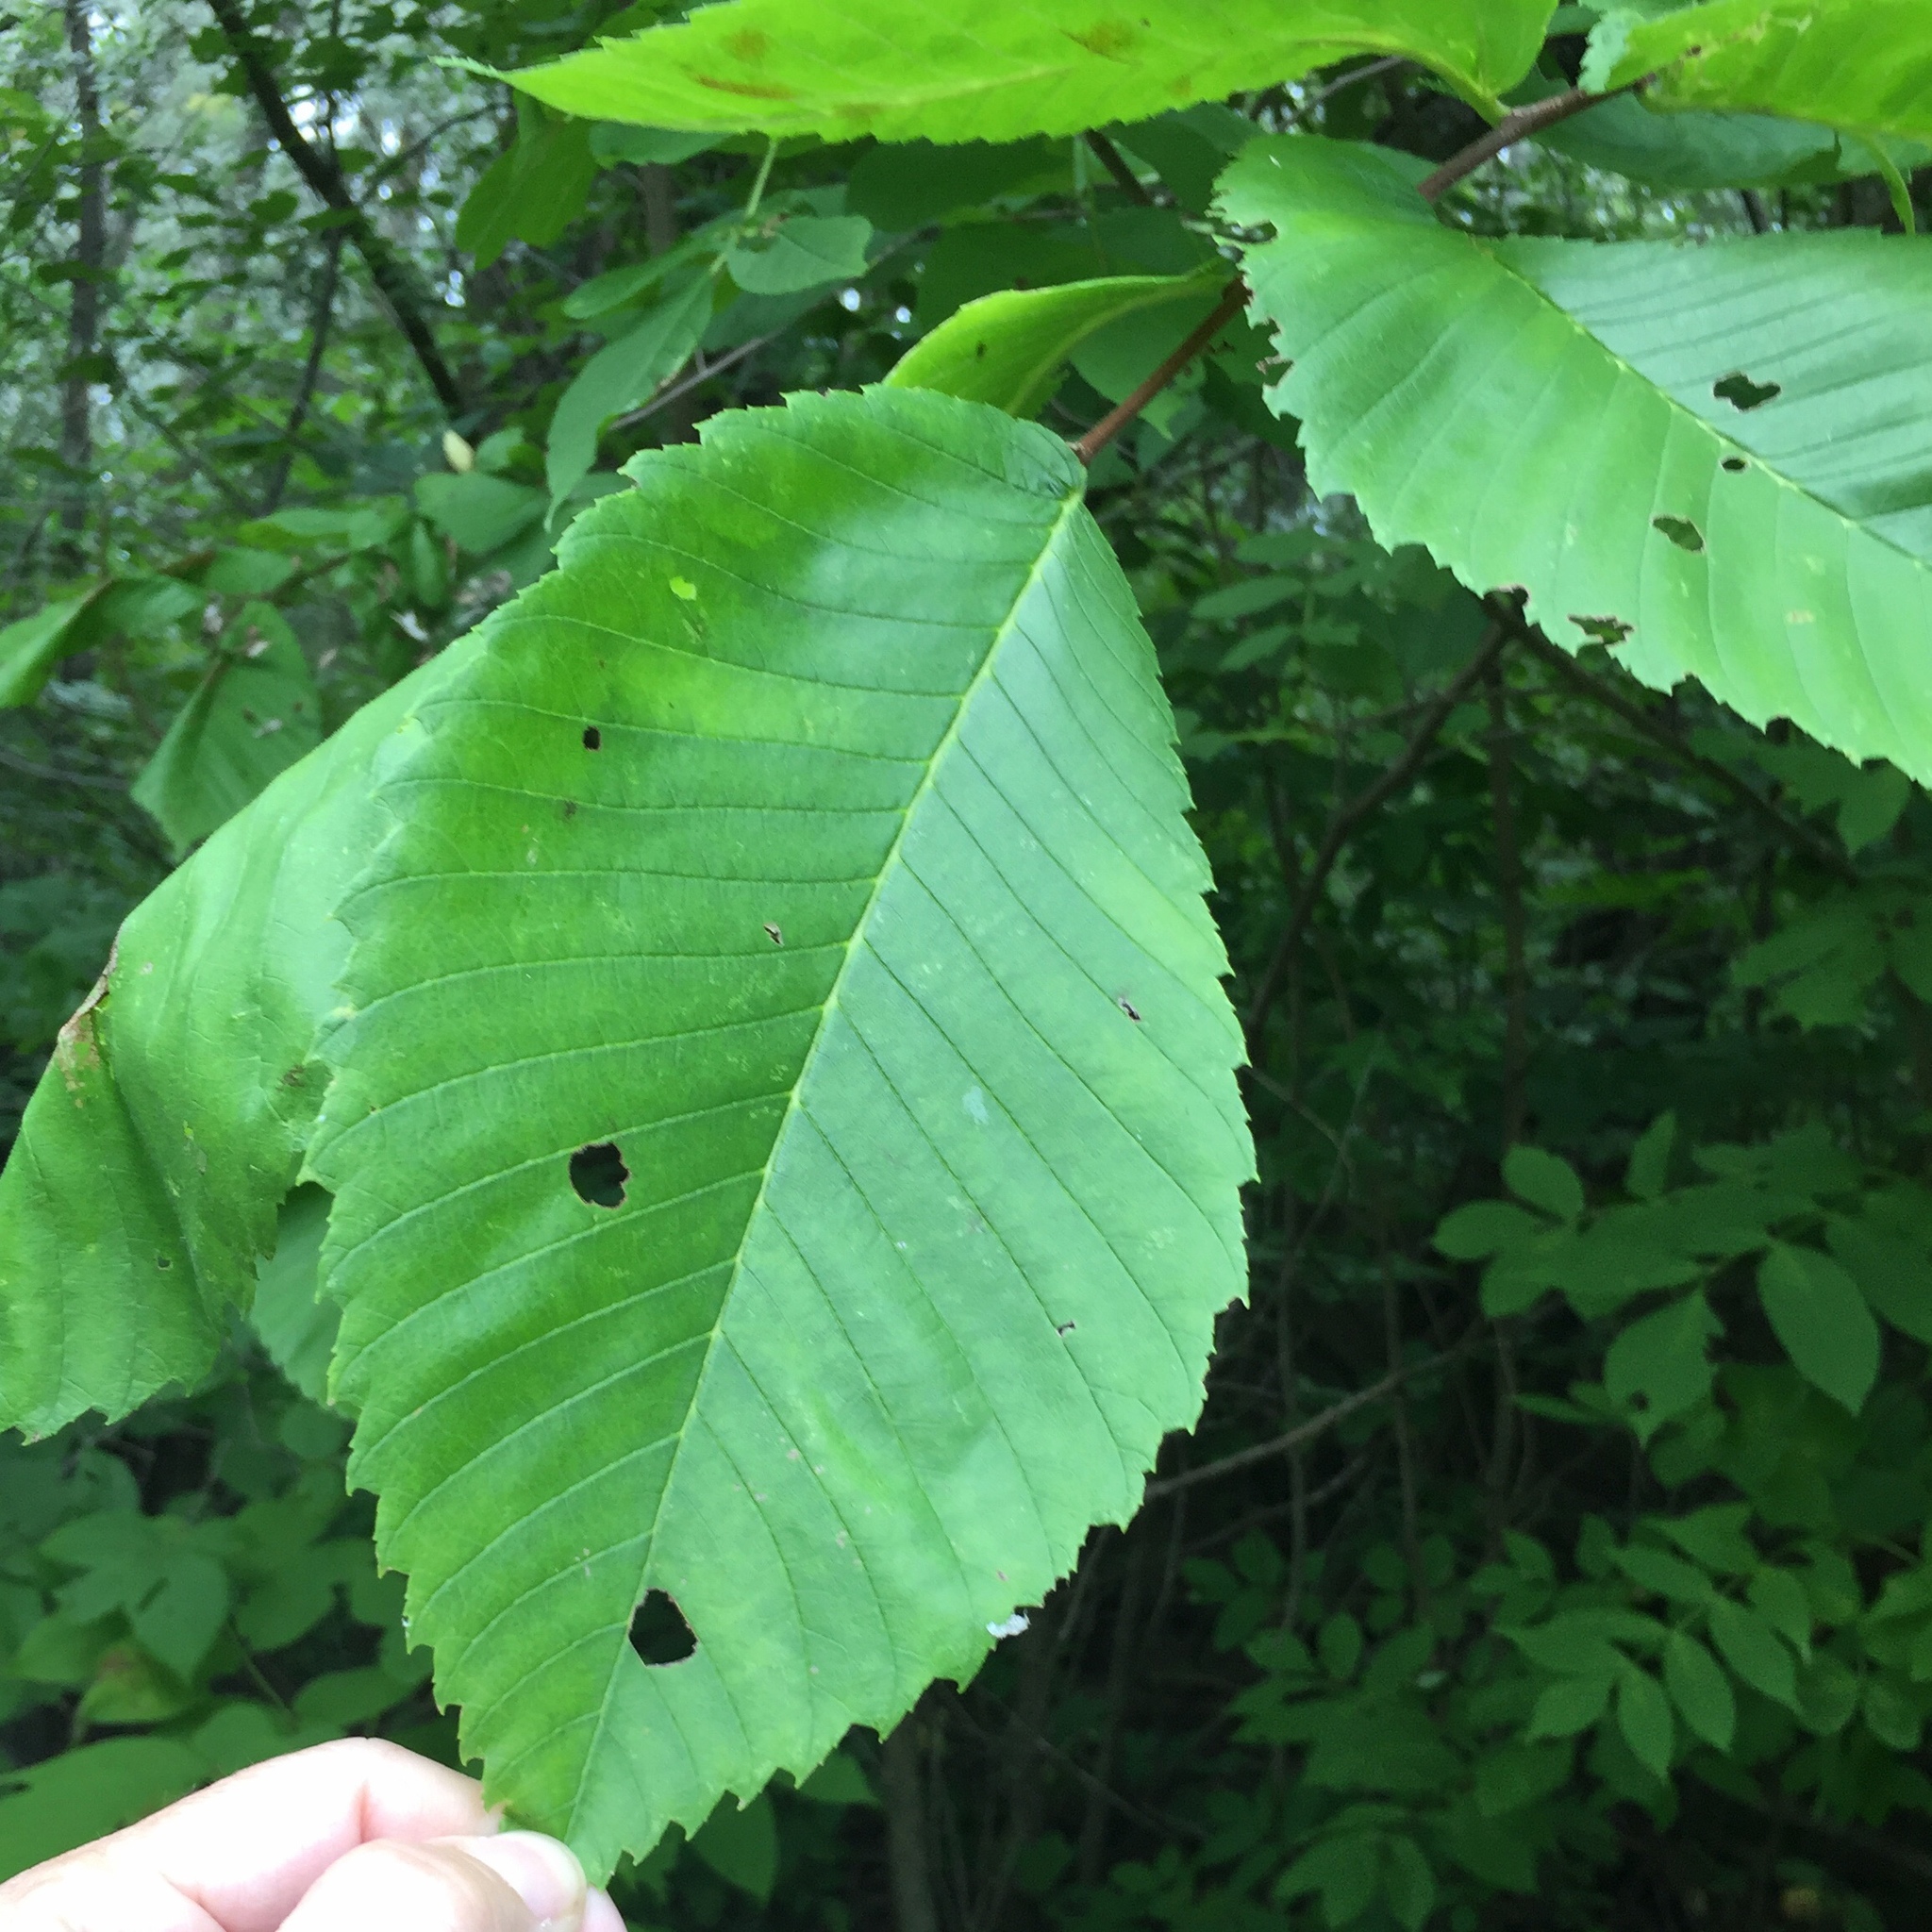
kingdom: Plantae
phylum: Tracheophyta
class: Magnoliopsida
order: Rosales
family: Ulmaceae
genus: Ulmus
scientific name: Ulmus americana
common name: American elm
